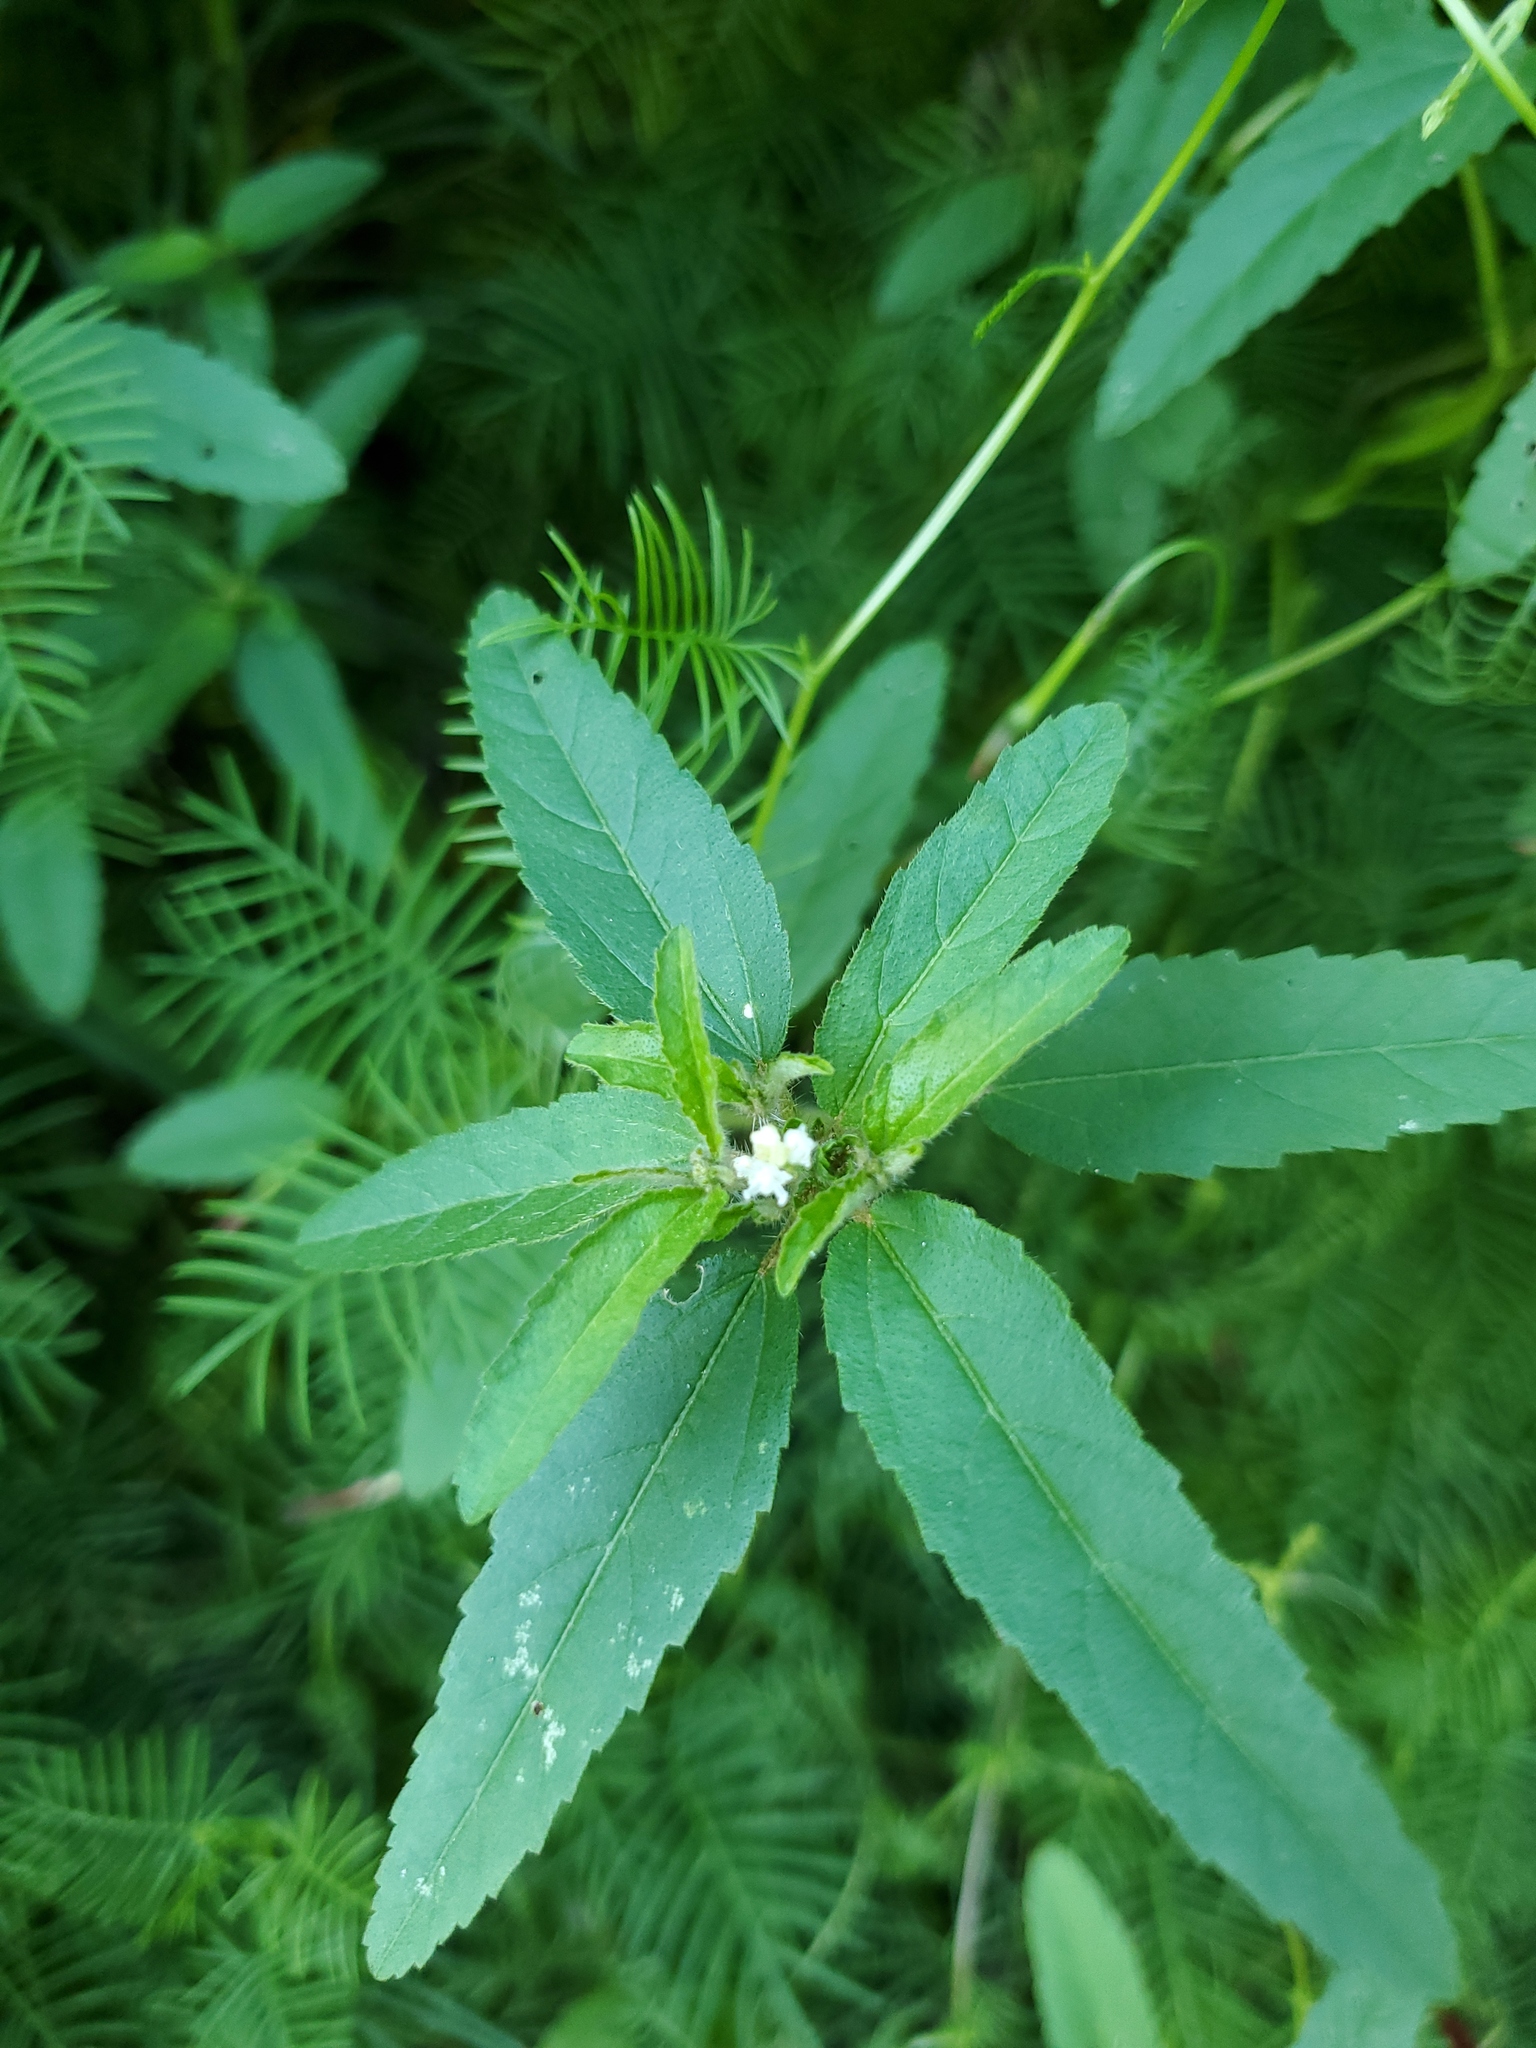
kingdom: Plantae
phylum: Tracheophyta
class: Magnoliopsida
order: Malpighiales
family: Euphorbiaceae
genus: Croton
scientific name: Croton glandulosus
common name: Tropic croton
